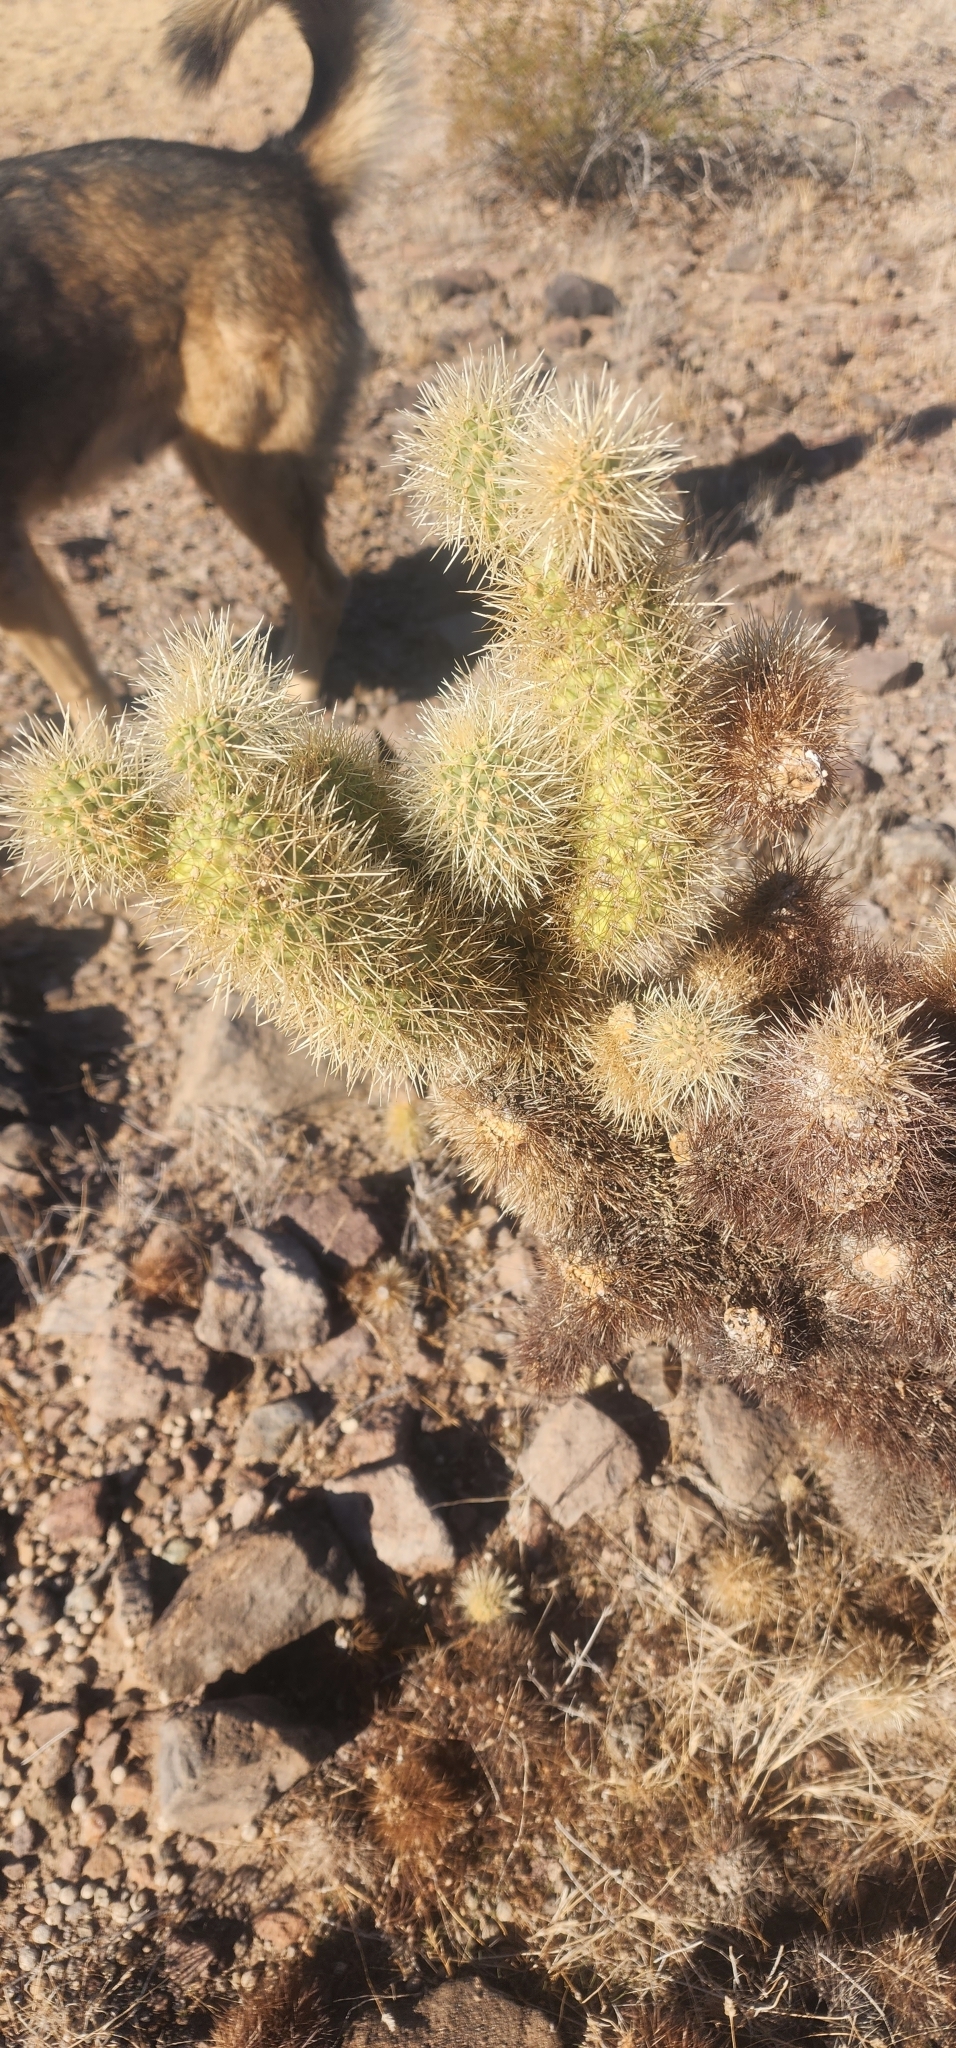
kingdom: Plantae
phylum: Tracheophyta
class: Magnoliopsida
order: Caryophyllales
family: Cactaceae
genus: Cylindropuntia
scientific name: Cylindropuntia fosbergii
